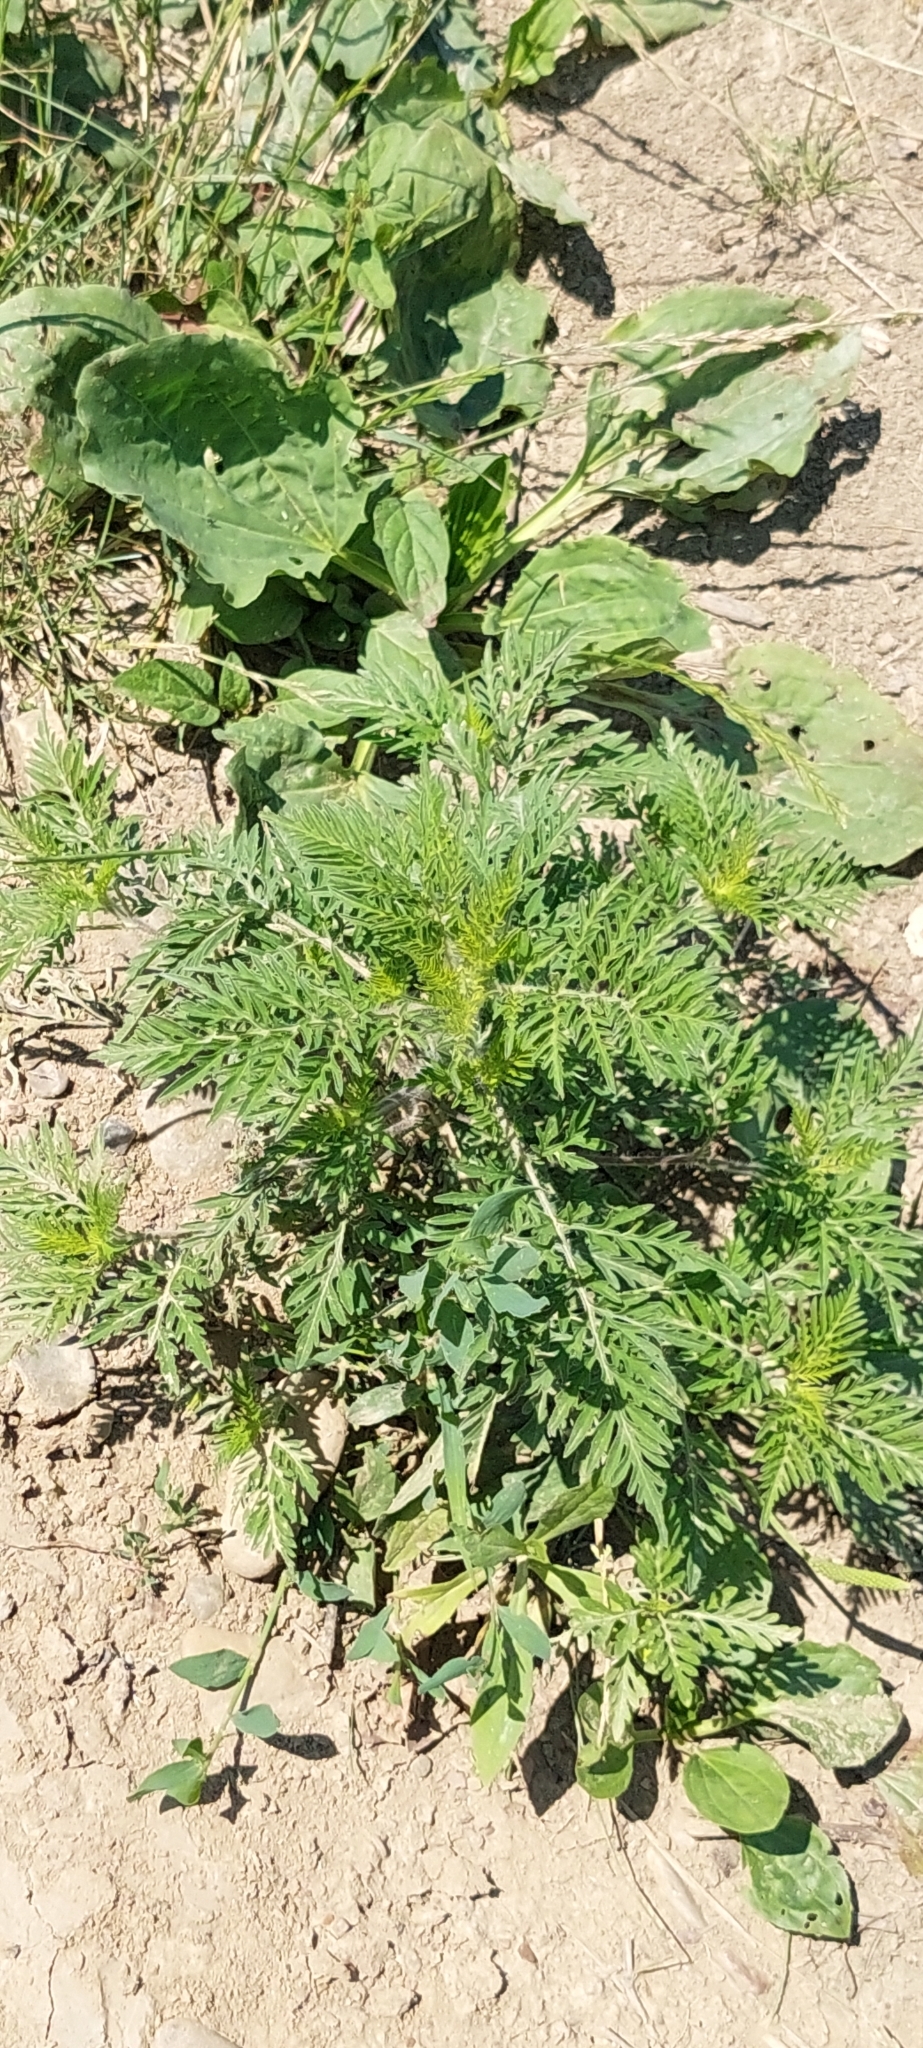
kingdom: Plantae
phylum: Tracheophyta
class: Magnoliopsida
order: Asterales
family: Asteraceae
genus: Ambrosia
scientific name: Ambrosia artemisiifolia
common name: Annual ragweed
